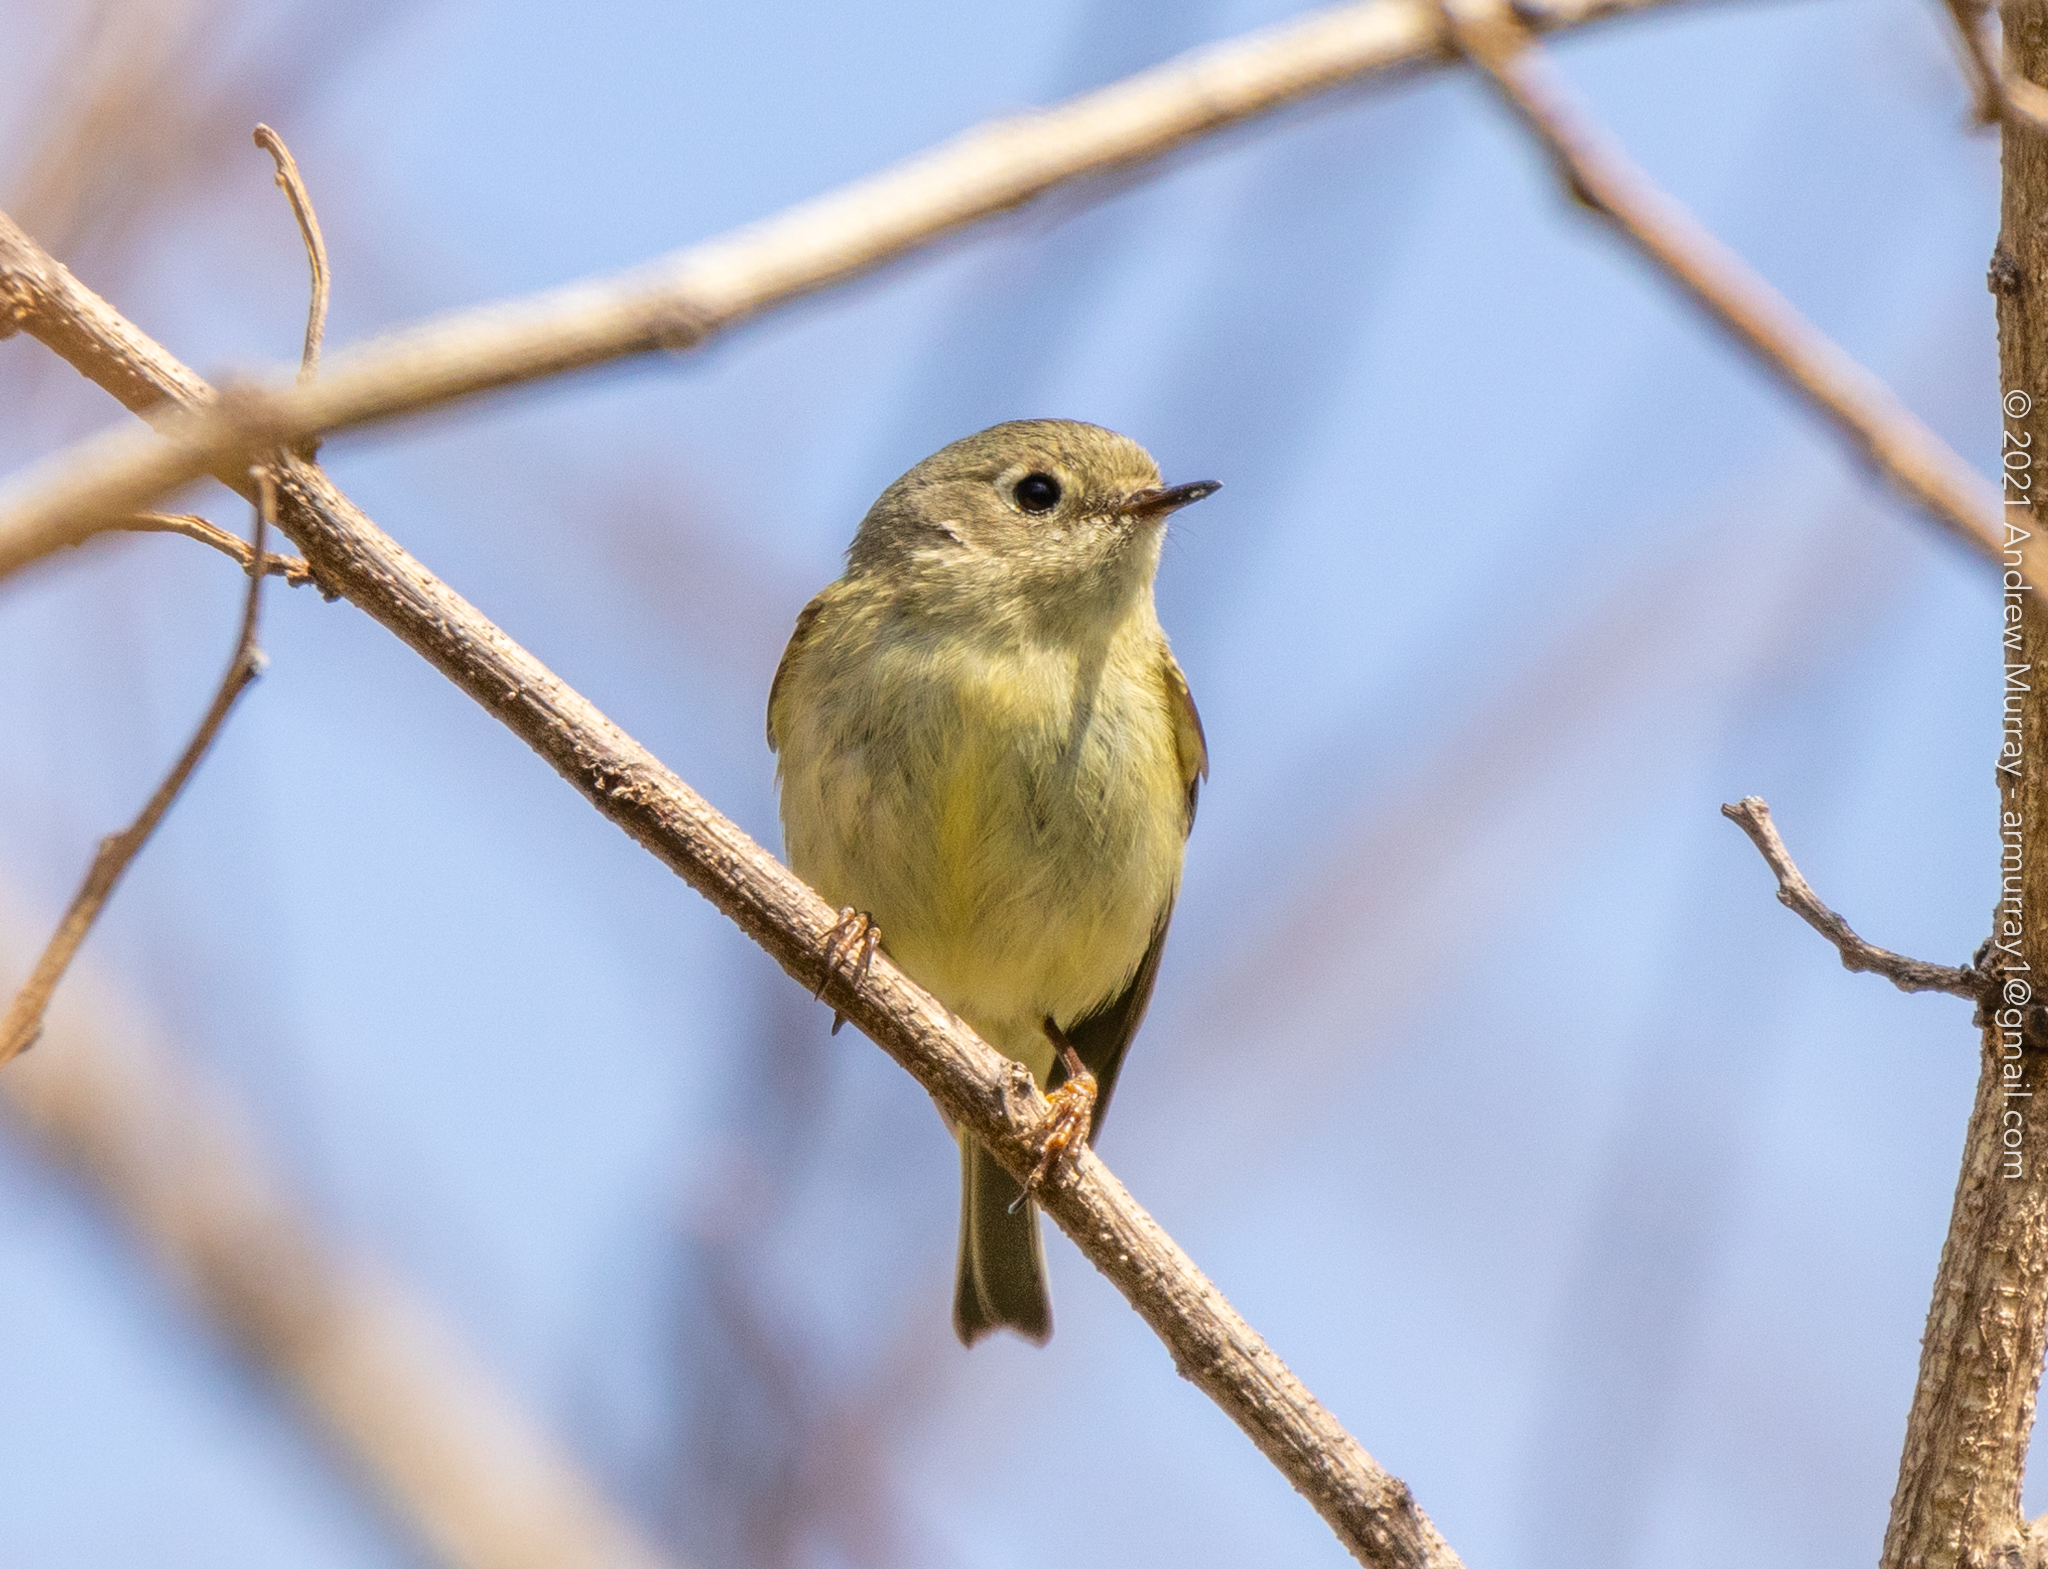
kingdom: Animalia
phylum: Chordata
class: Aves
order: Passeriformes
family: Regulidae
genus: Regulus
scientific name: Regulus calendula
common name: Ruby-crowned kinglet
